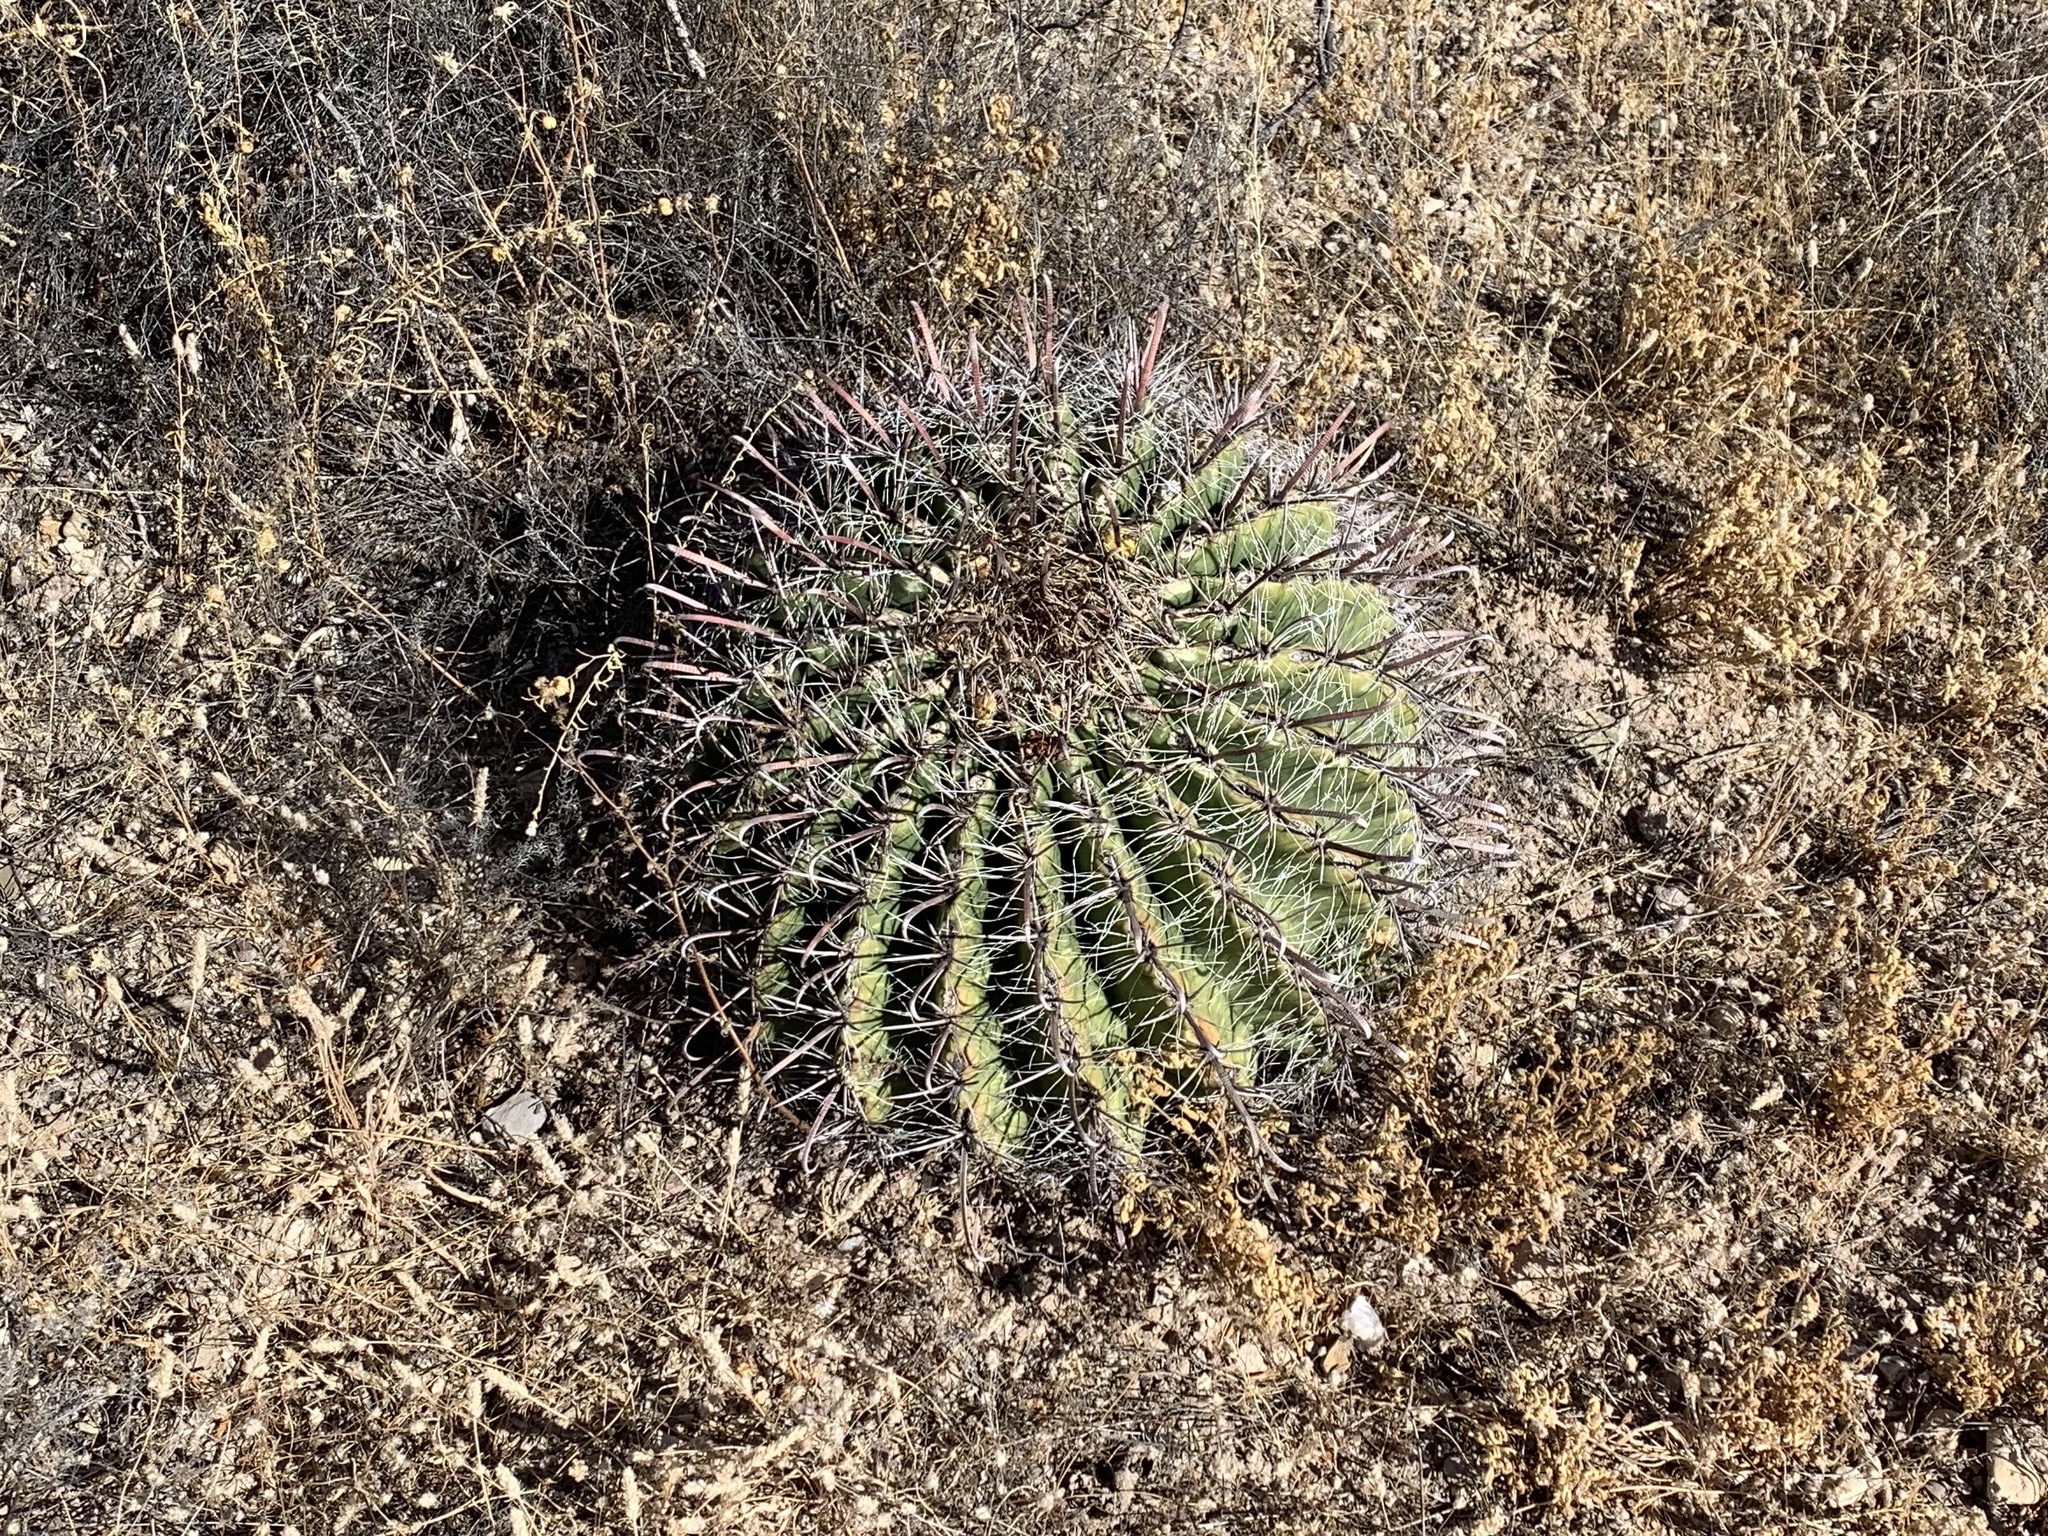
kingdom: Plantae
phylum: Tracheophyta
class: Magnoliopsida
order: Caryophyllales
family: Cactaceae
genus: Ferocactus
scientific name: Ferocactus wislizeni
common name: Candy barrel cactus
